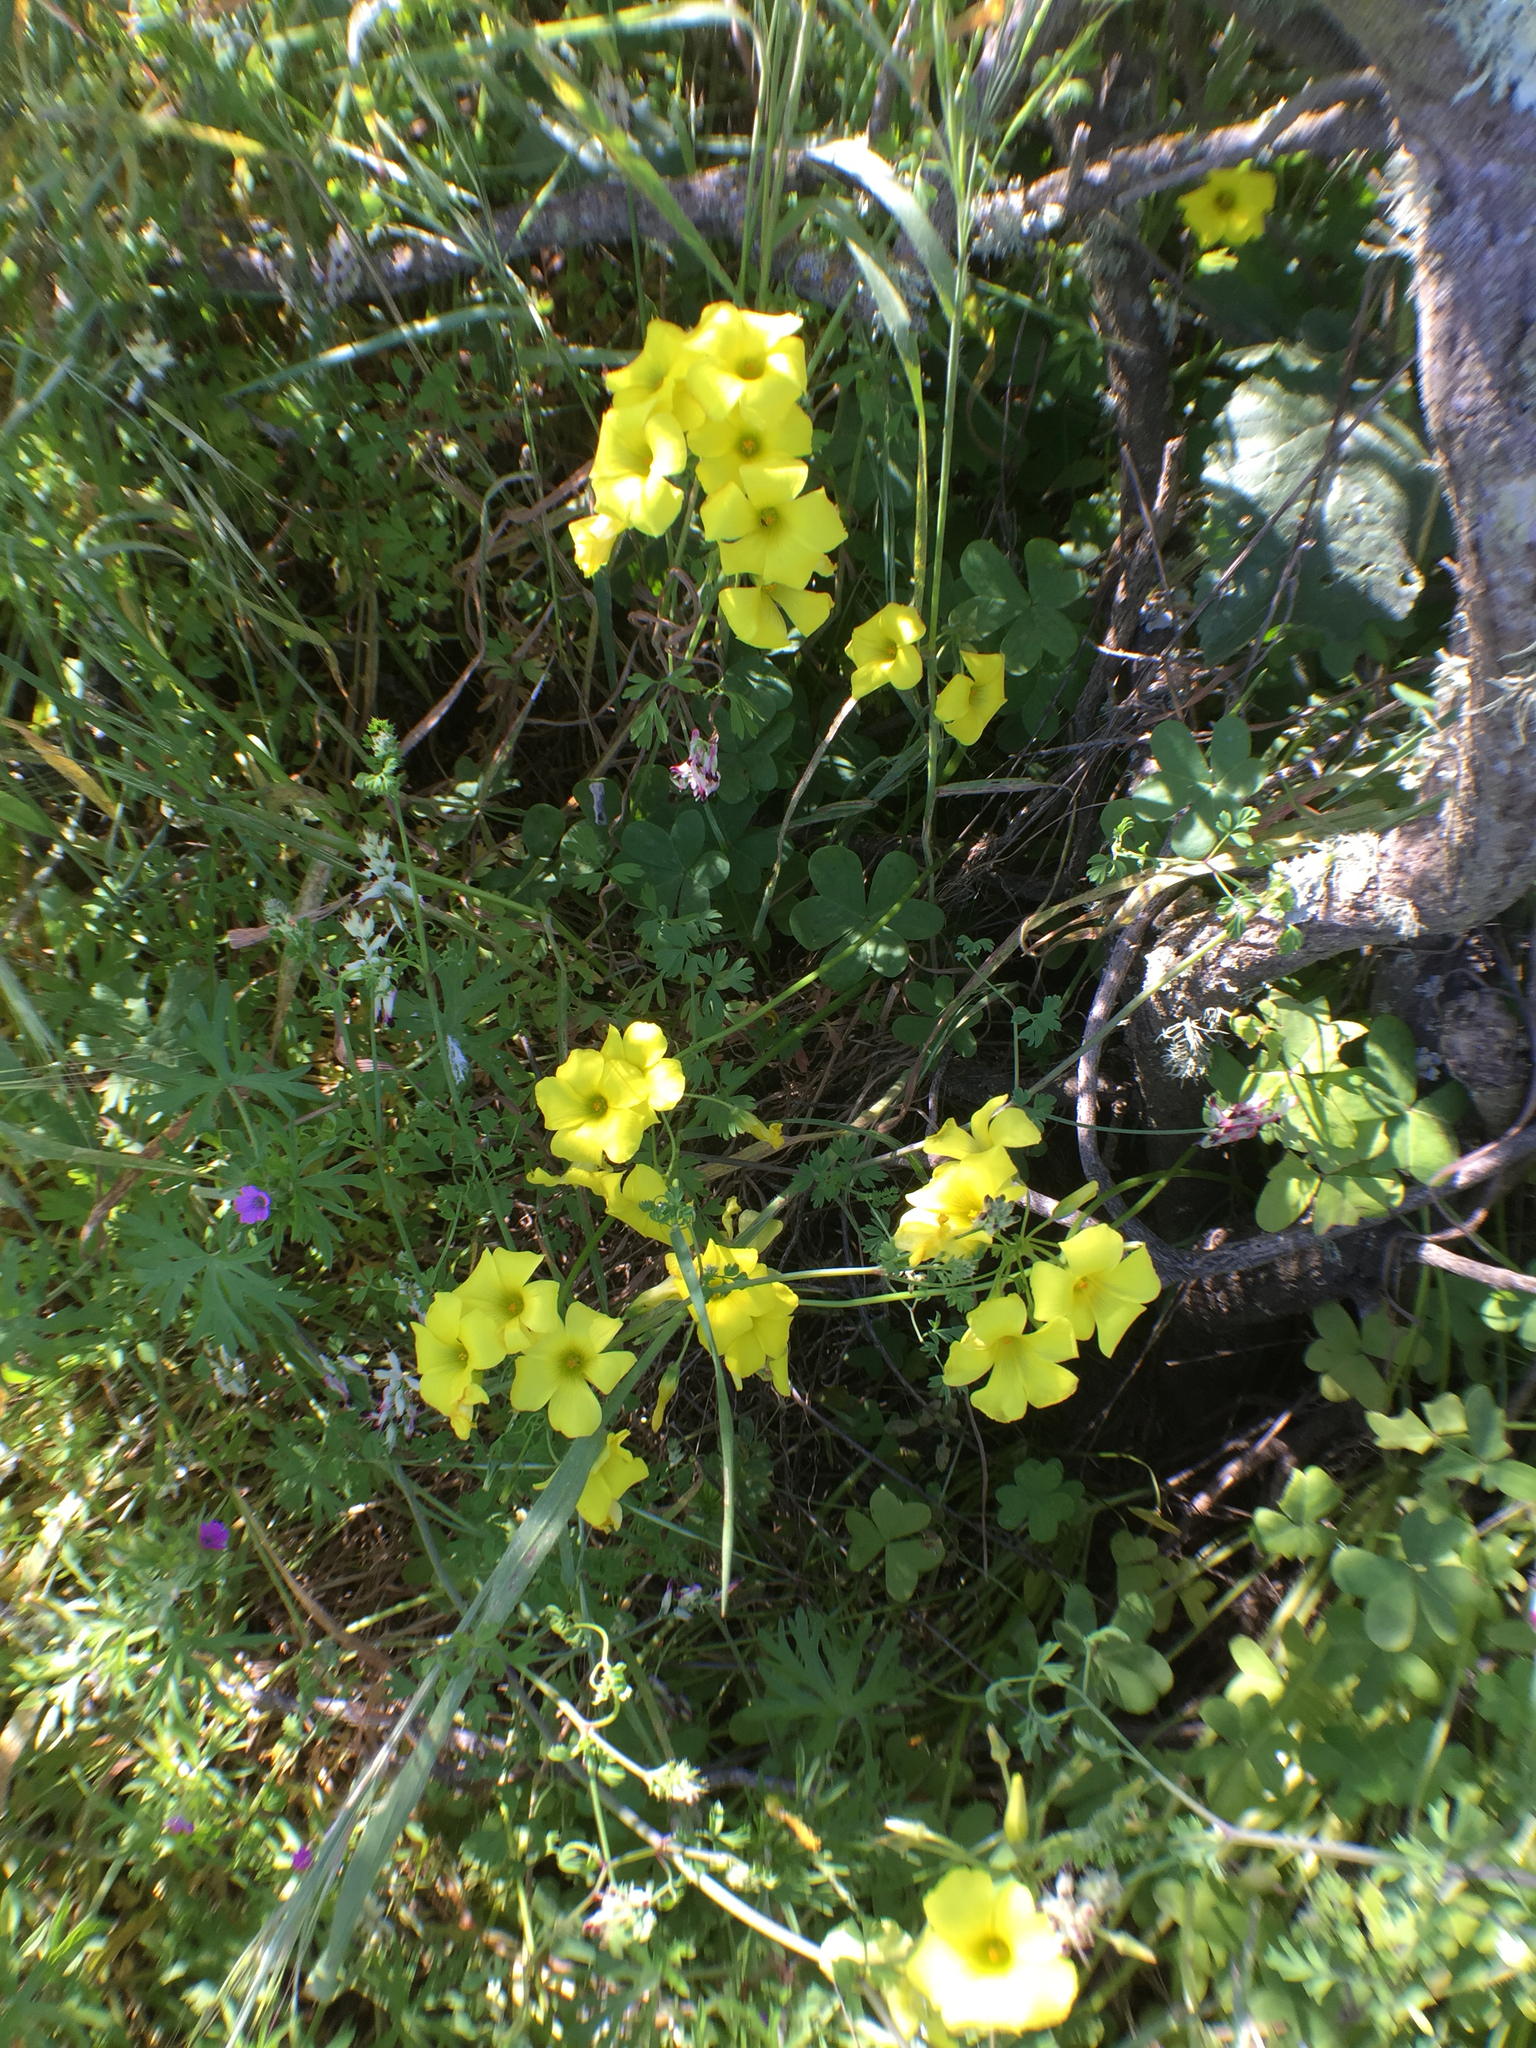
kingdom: Plantae
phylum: Tracheophyta
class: Magnoliopsida
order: Oxalidales
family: Oxalidaceae
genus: Oxalis
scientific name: Oxalis pes-caprae
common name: Bermuda-buttercup
